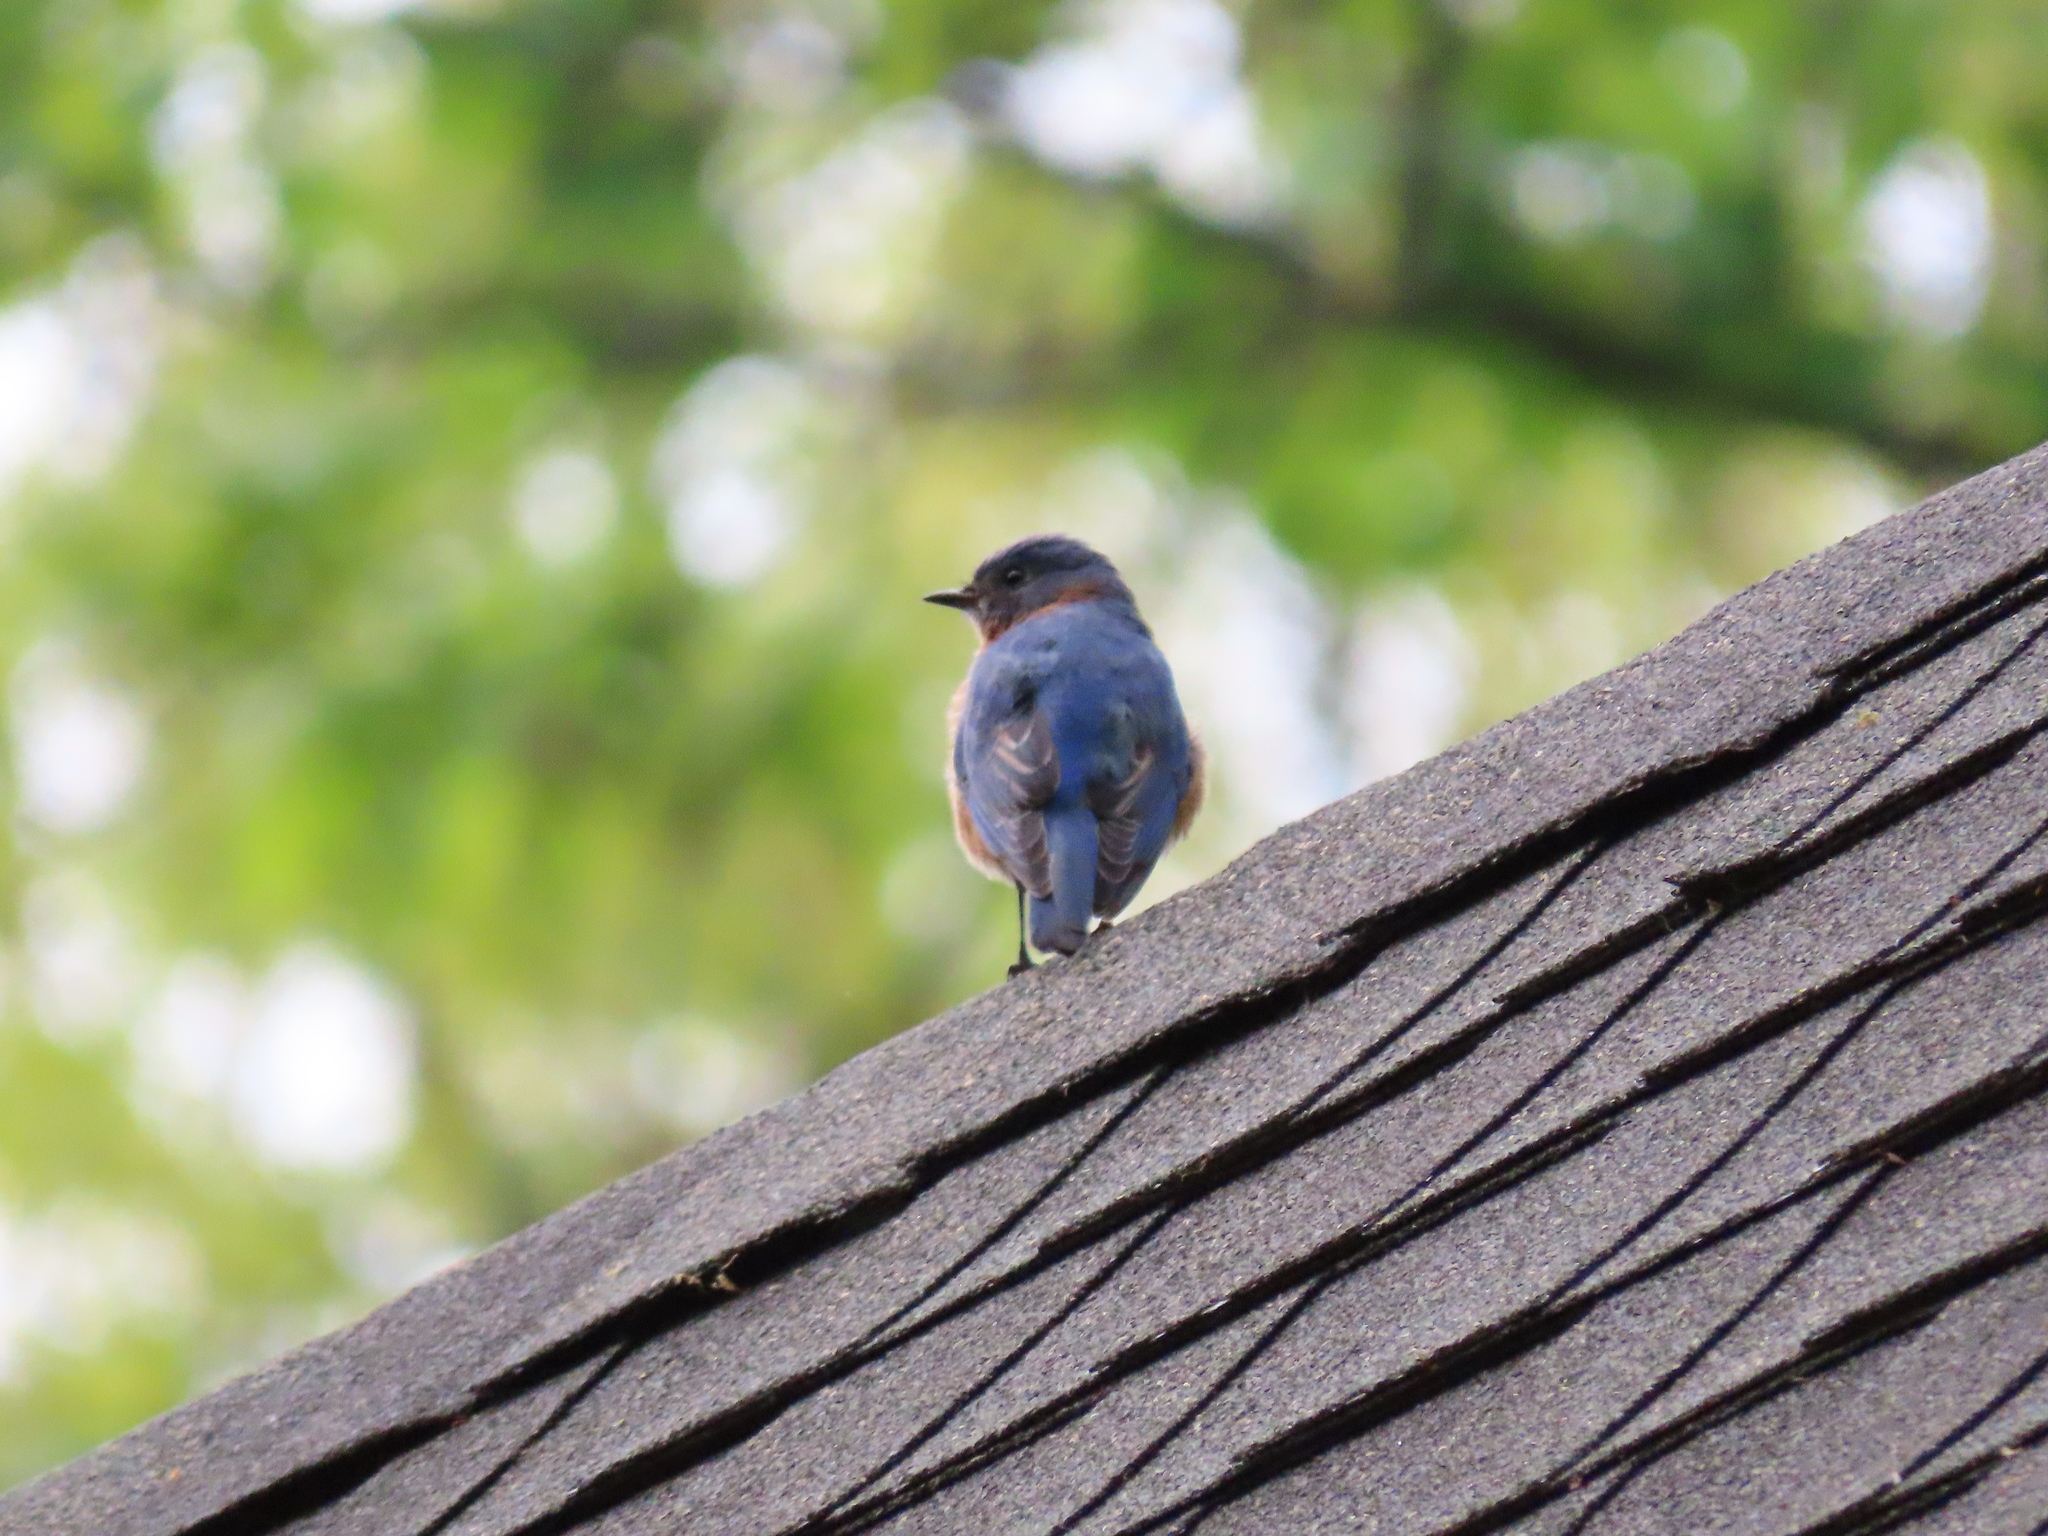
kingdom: Animalia
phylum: Chordata
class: Aves
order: Passeriformes
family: Turdidae
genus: Sialia
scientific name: Sialia sialis
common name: Eastern bluebird
